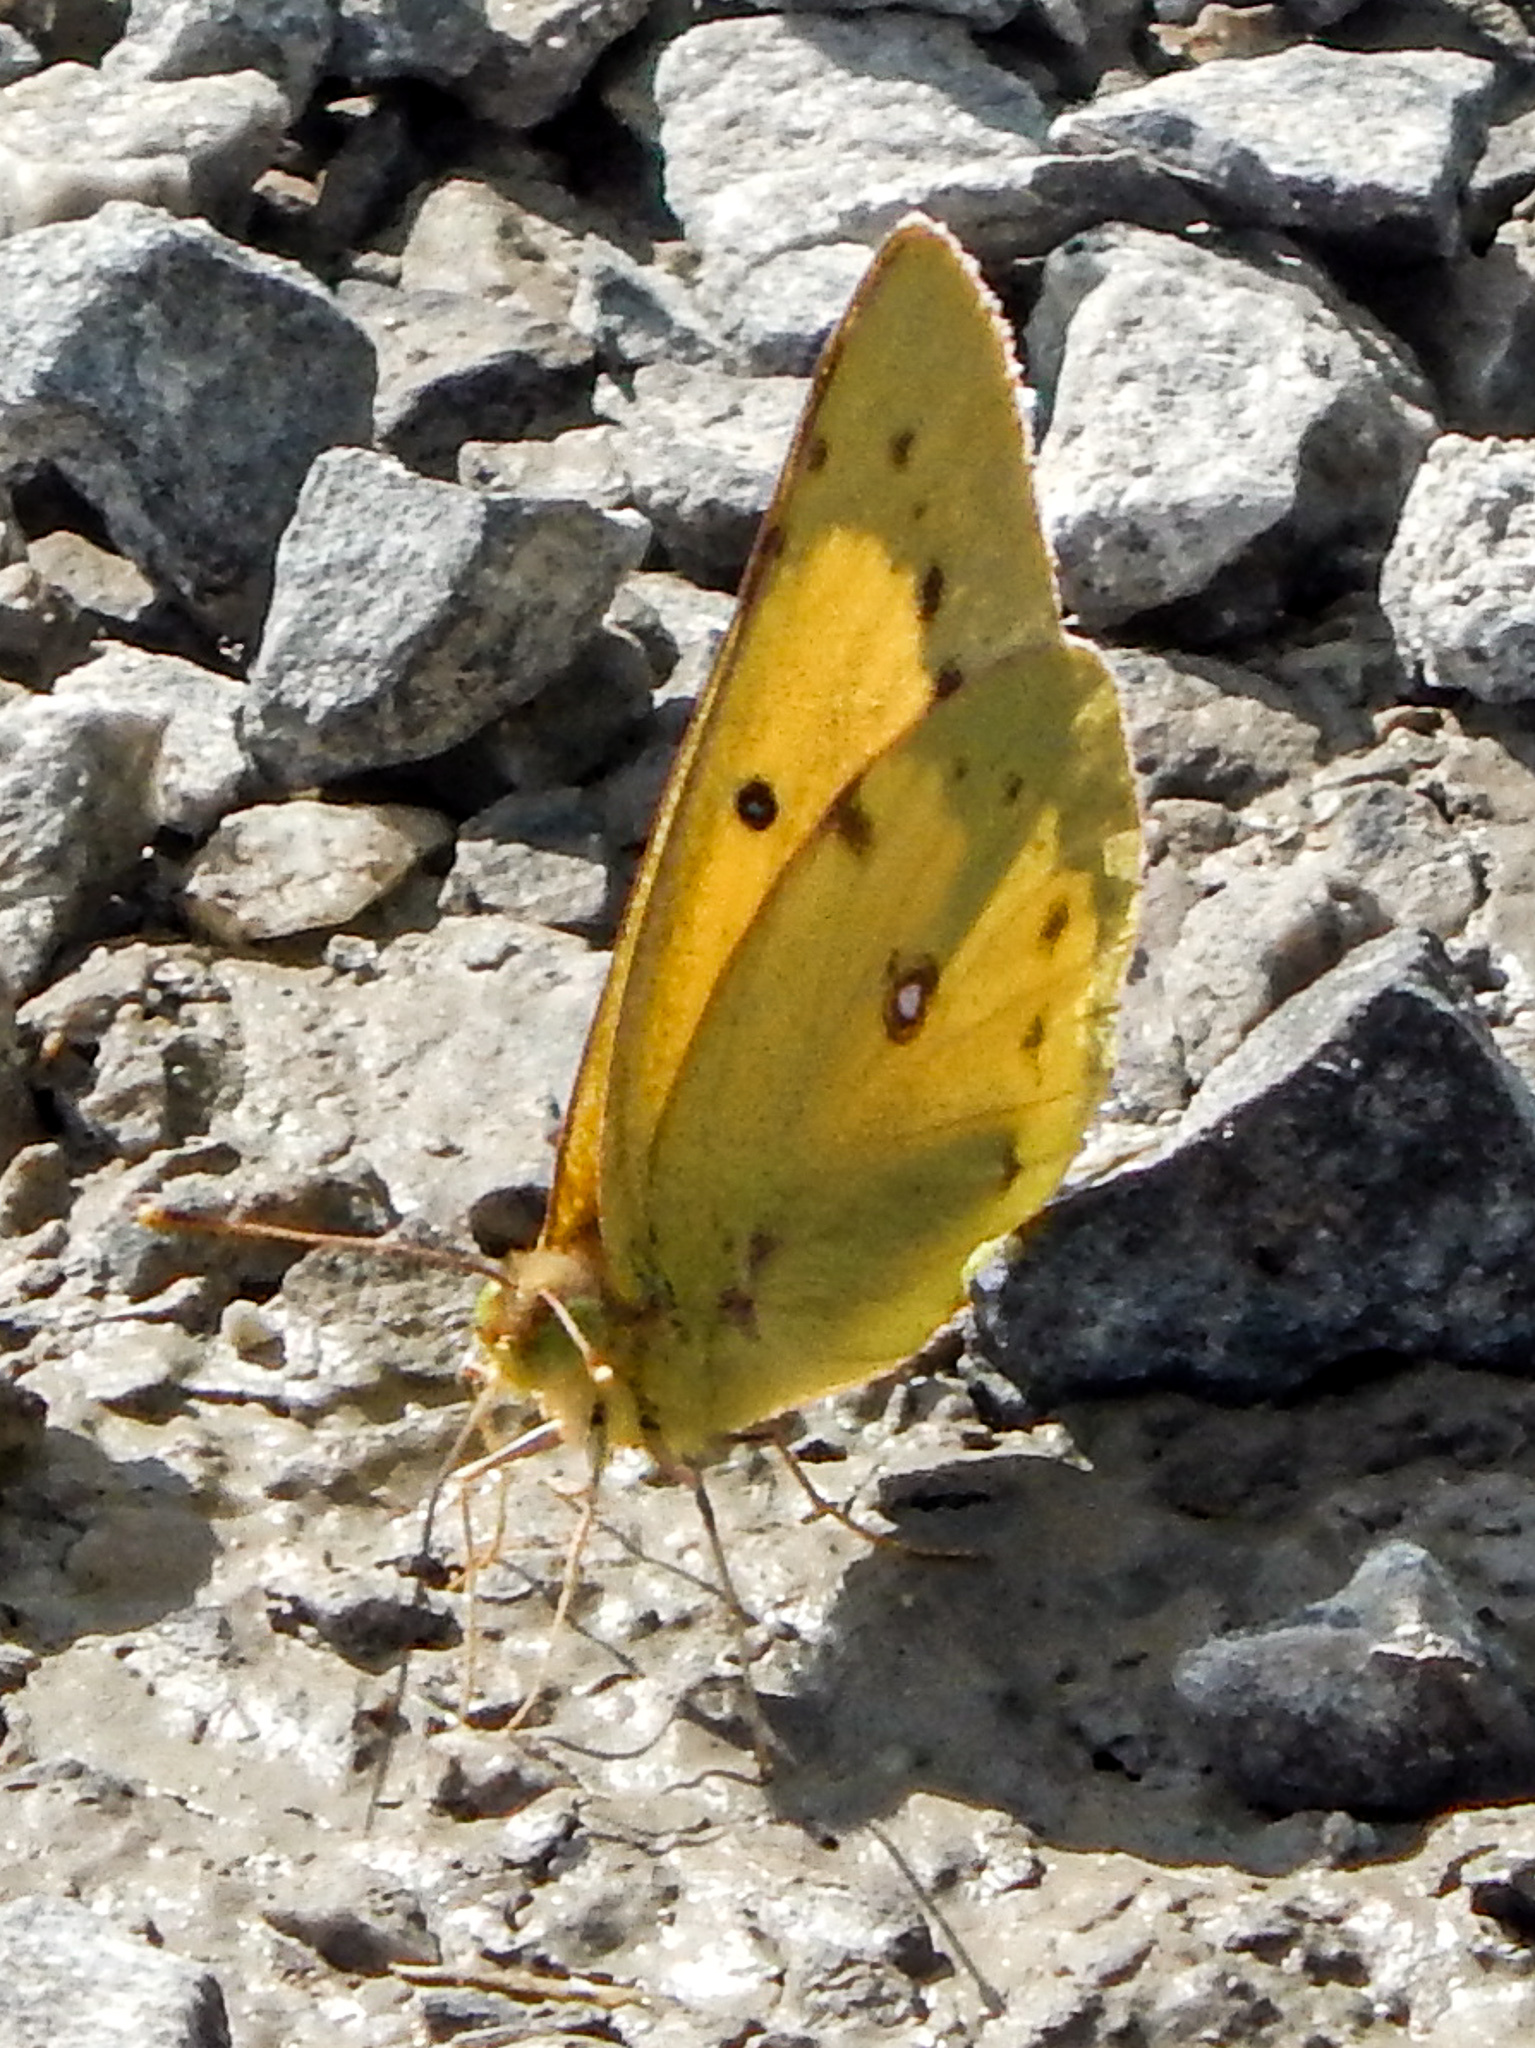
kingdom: Animalia
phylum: Arthropoda
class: Insecta
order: Lepidoptera
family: Pieridae
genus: Colias
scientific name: Colias eurytheme
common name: Alfalfa butterfly
